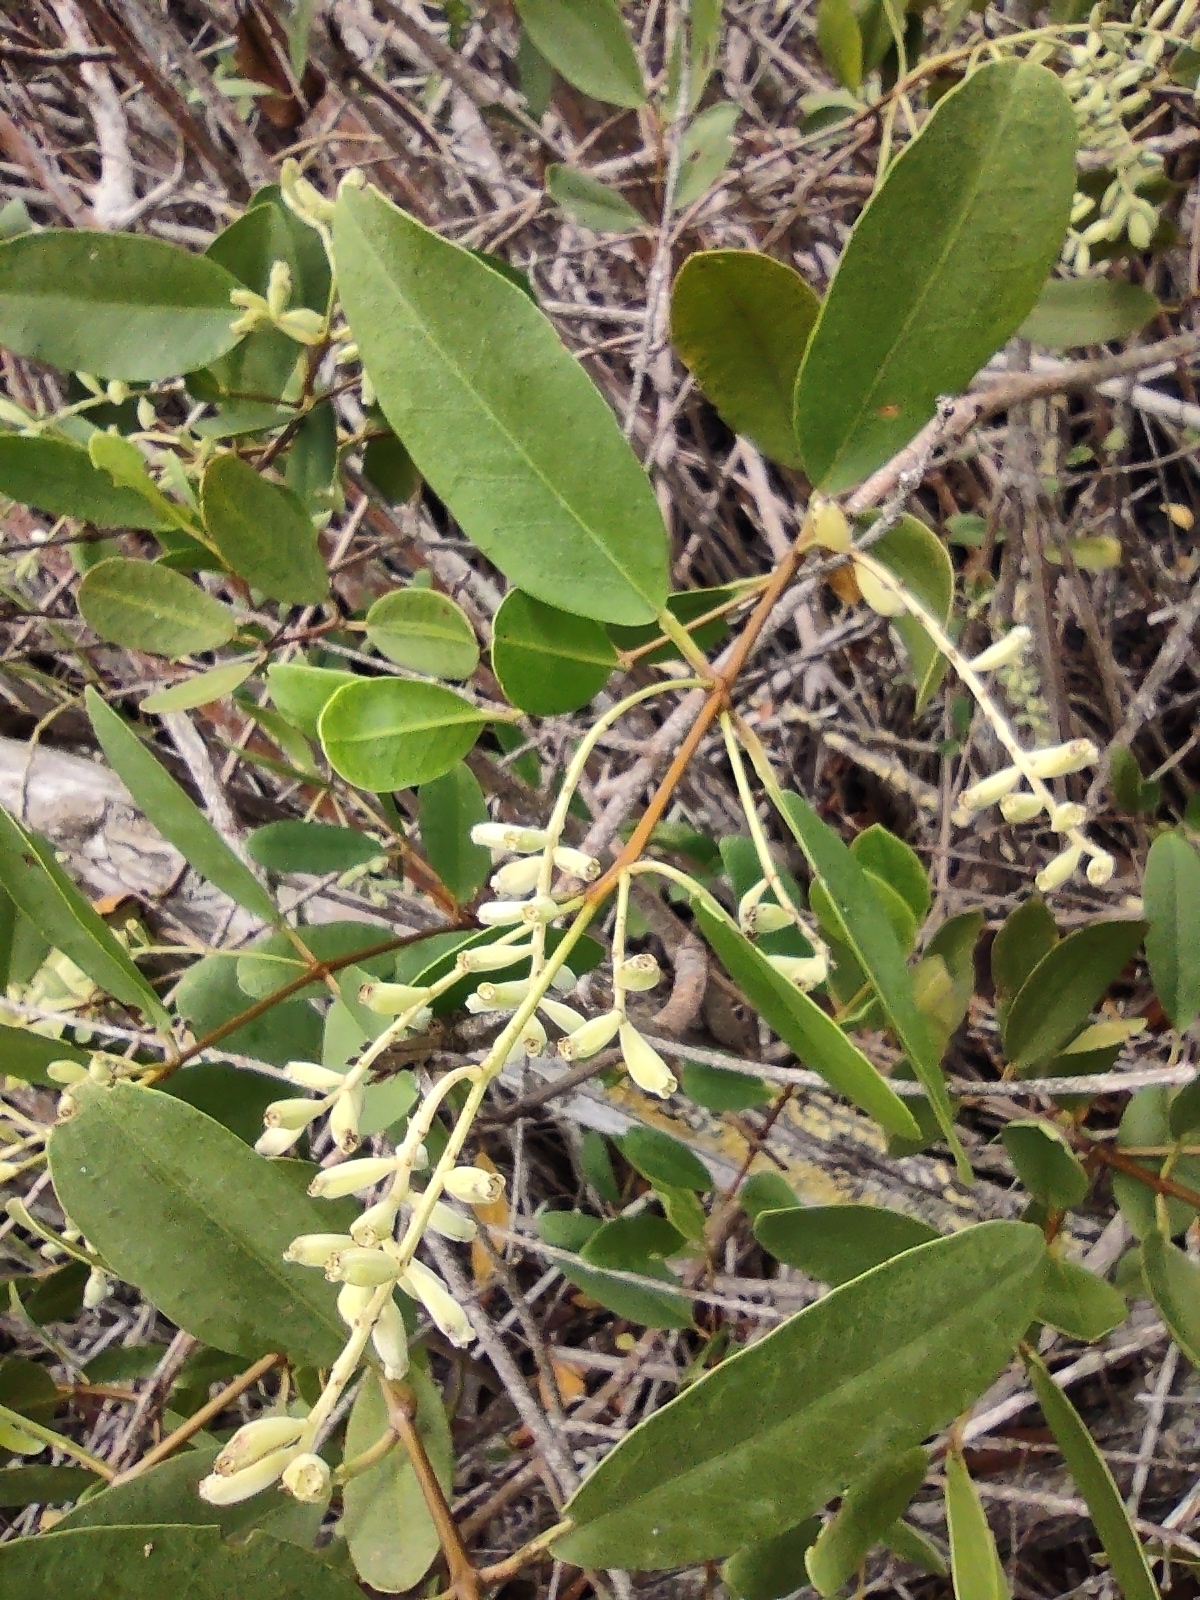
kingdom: Plantae
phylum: Tracheophyta
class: Magnoliopsida
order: Myrtales
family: Combretaceae
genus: Laguncularia
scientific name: Laguncularia racemosa
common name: White mangrove
